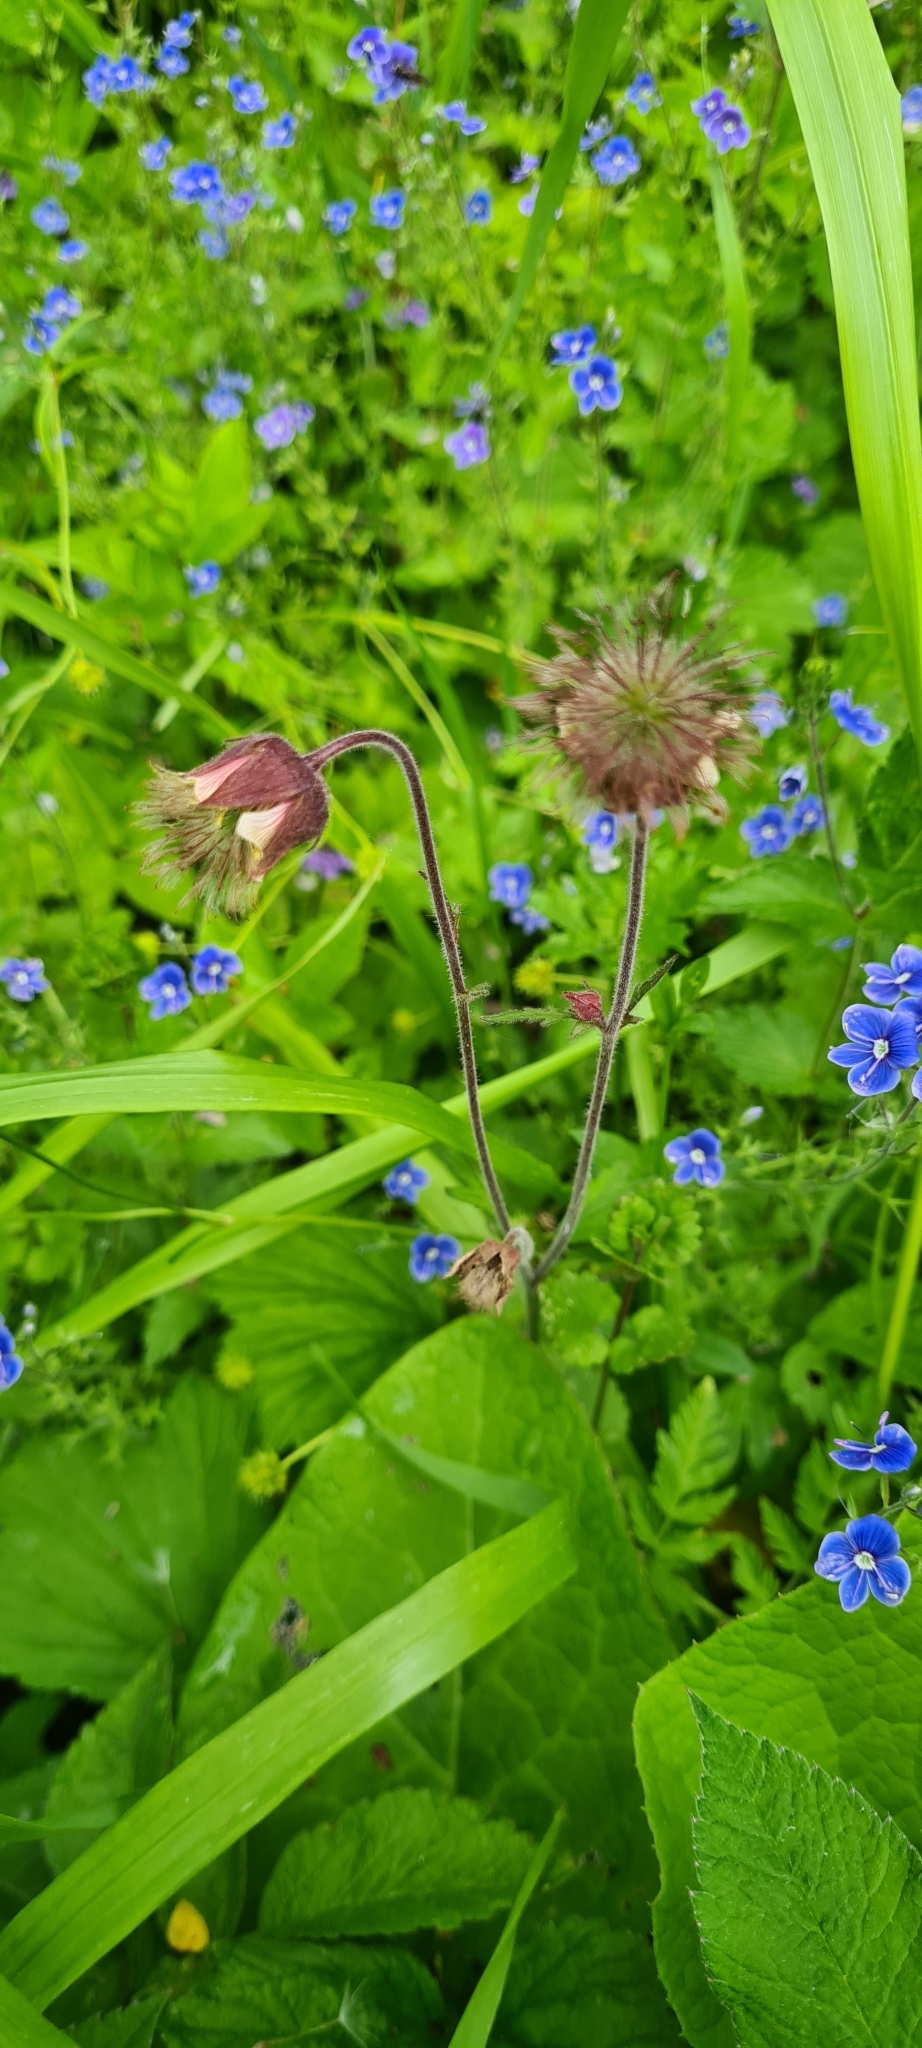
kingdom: Plantae
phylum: Tracheophyta
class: Magnoliopsida
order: Rosales
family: Rosaceae
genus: Geum
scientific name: Geum rivale
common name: Water avens
